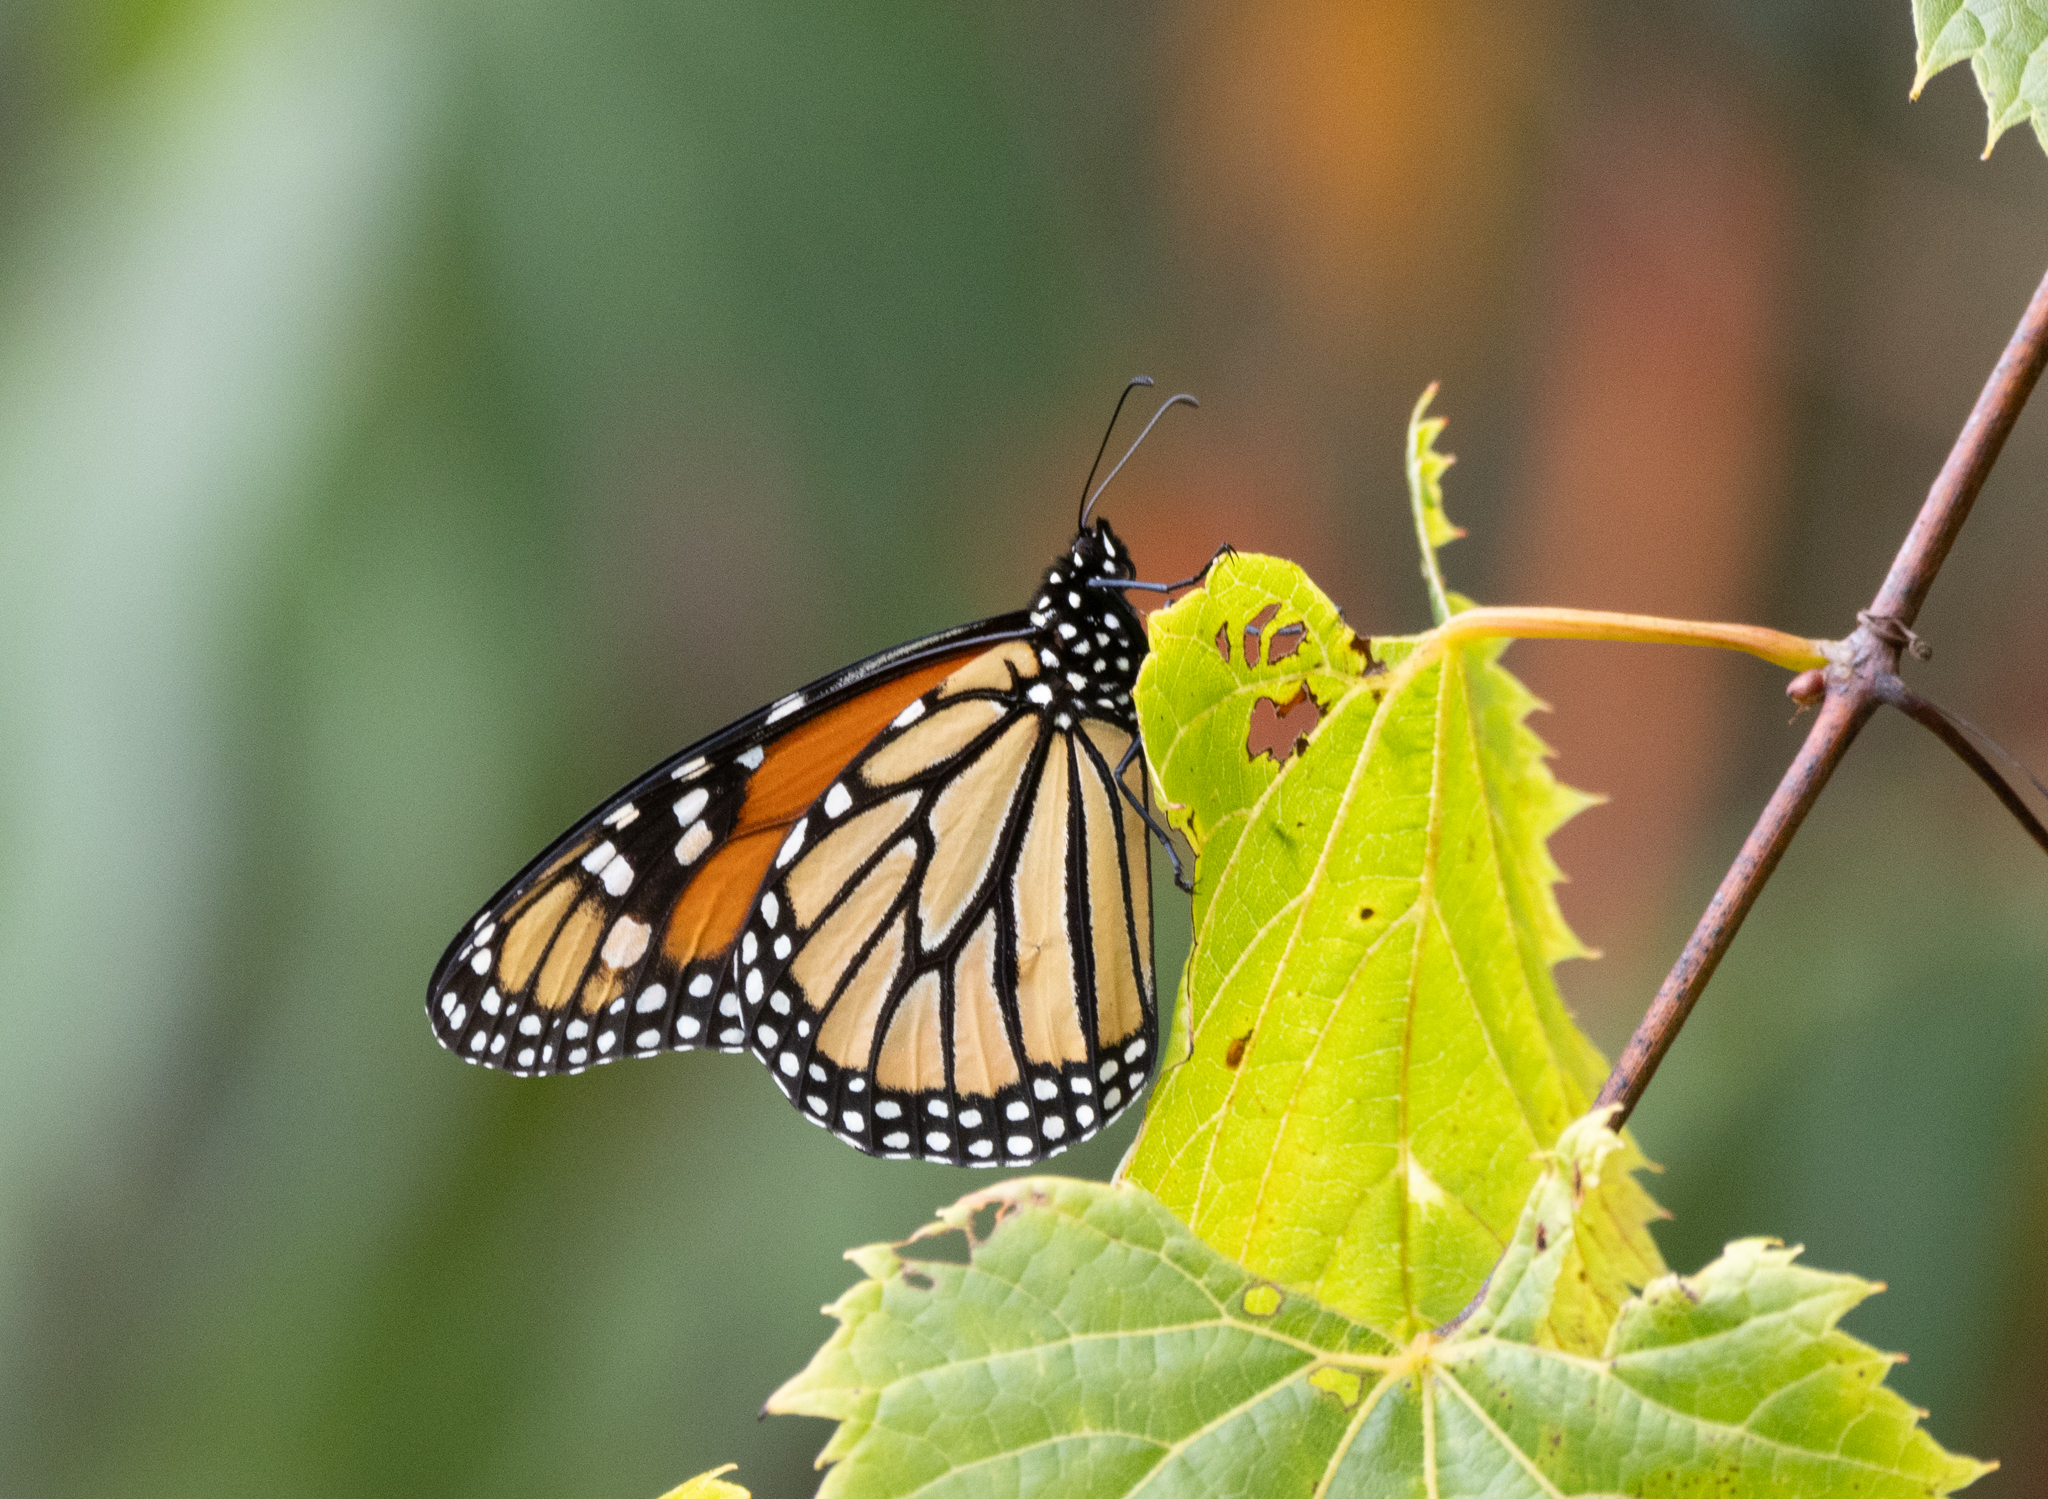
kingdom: Animalia
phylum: Arthropoda
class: Insecta
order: Lepidoptera
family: Nymphalidae
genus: Danaus
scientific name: Danaus plexippus
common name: Monarch
